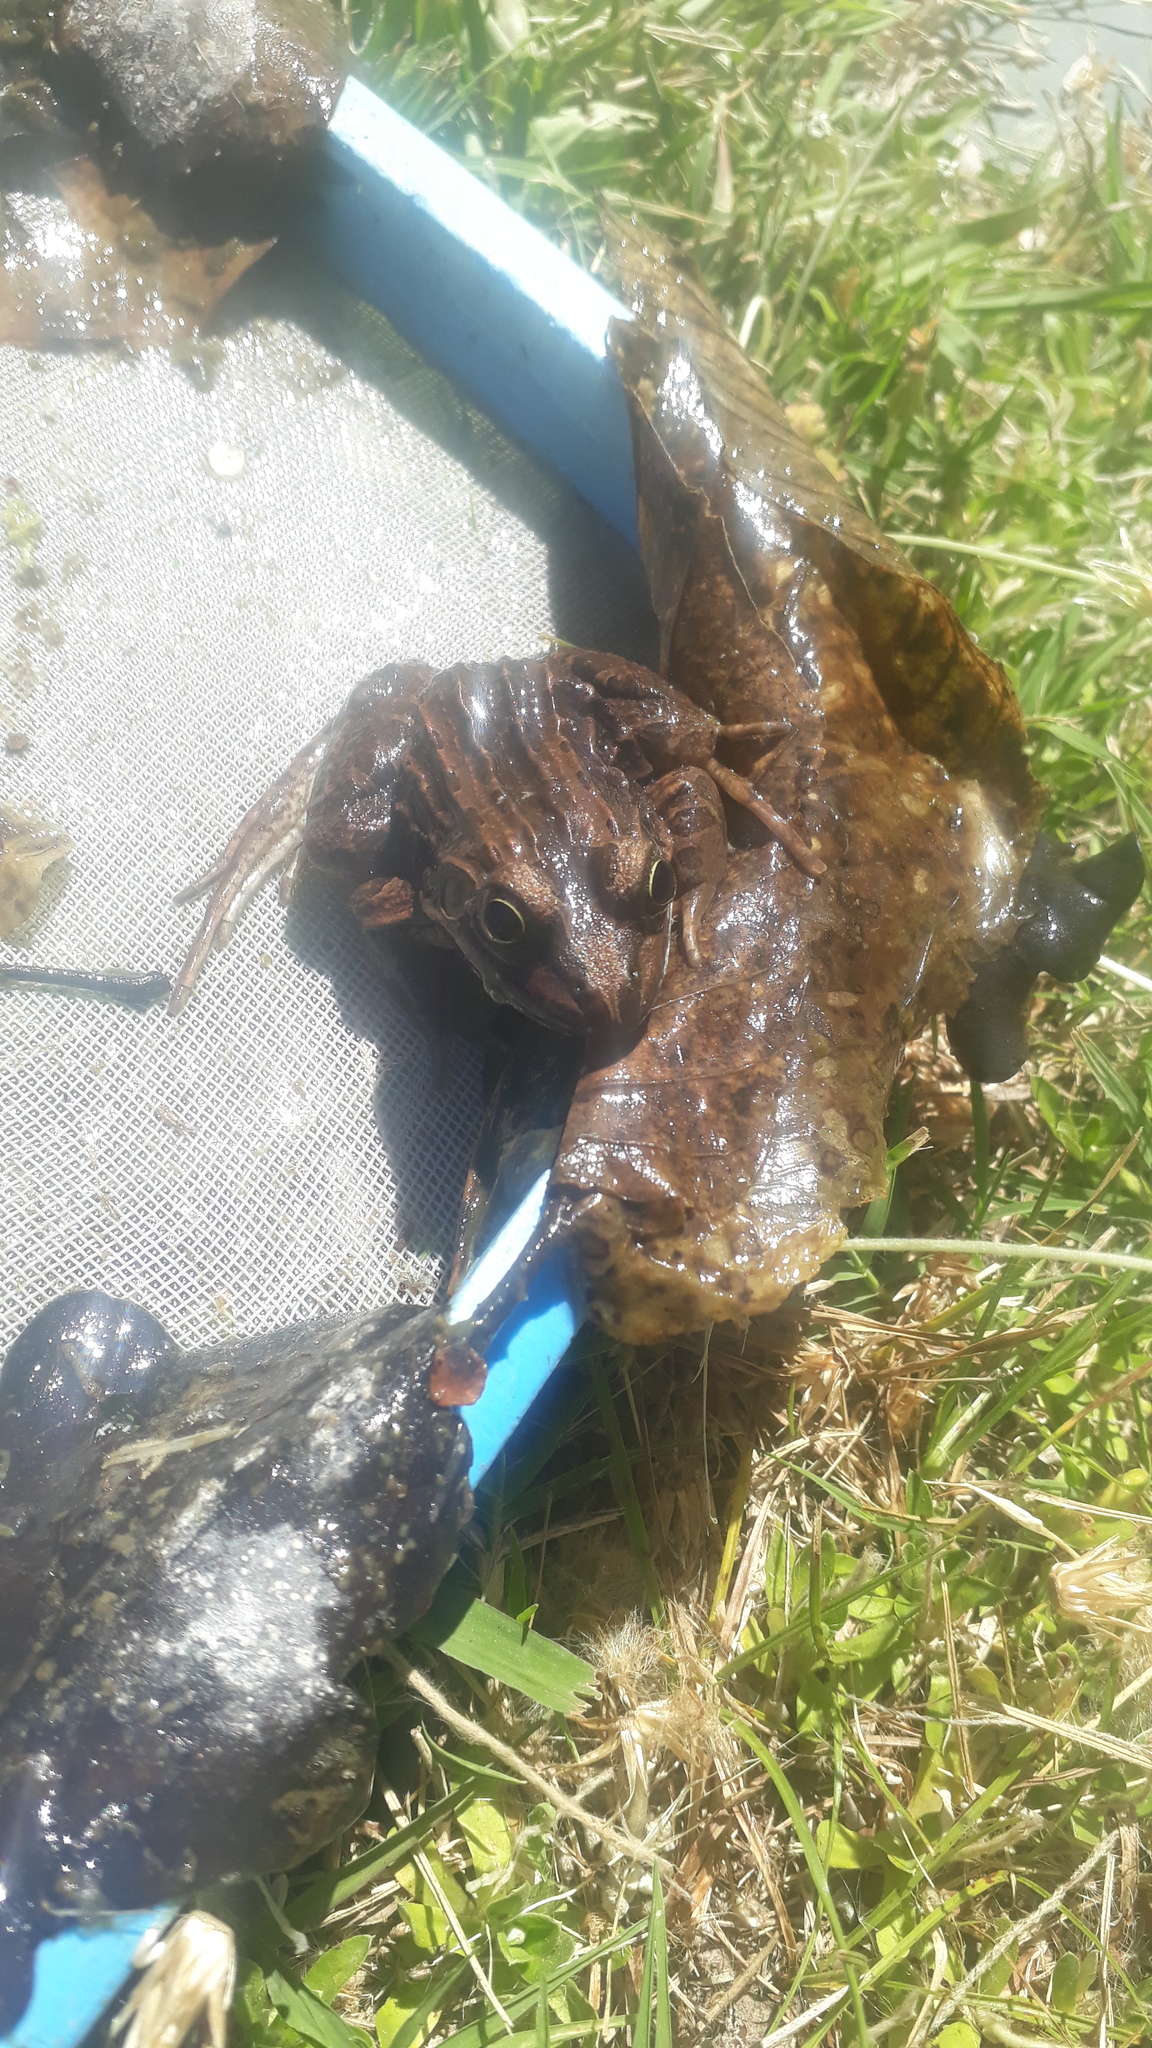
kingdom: Animalia
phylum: Chordata
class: Amphibia
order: Anura
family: Leptodactylidae
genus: Leptodactylus
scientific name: Leptodactylus luctator
